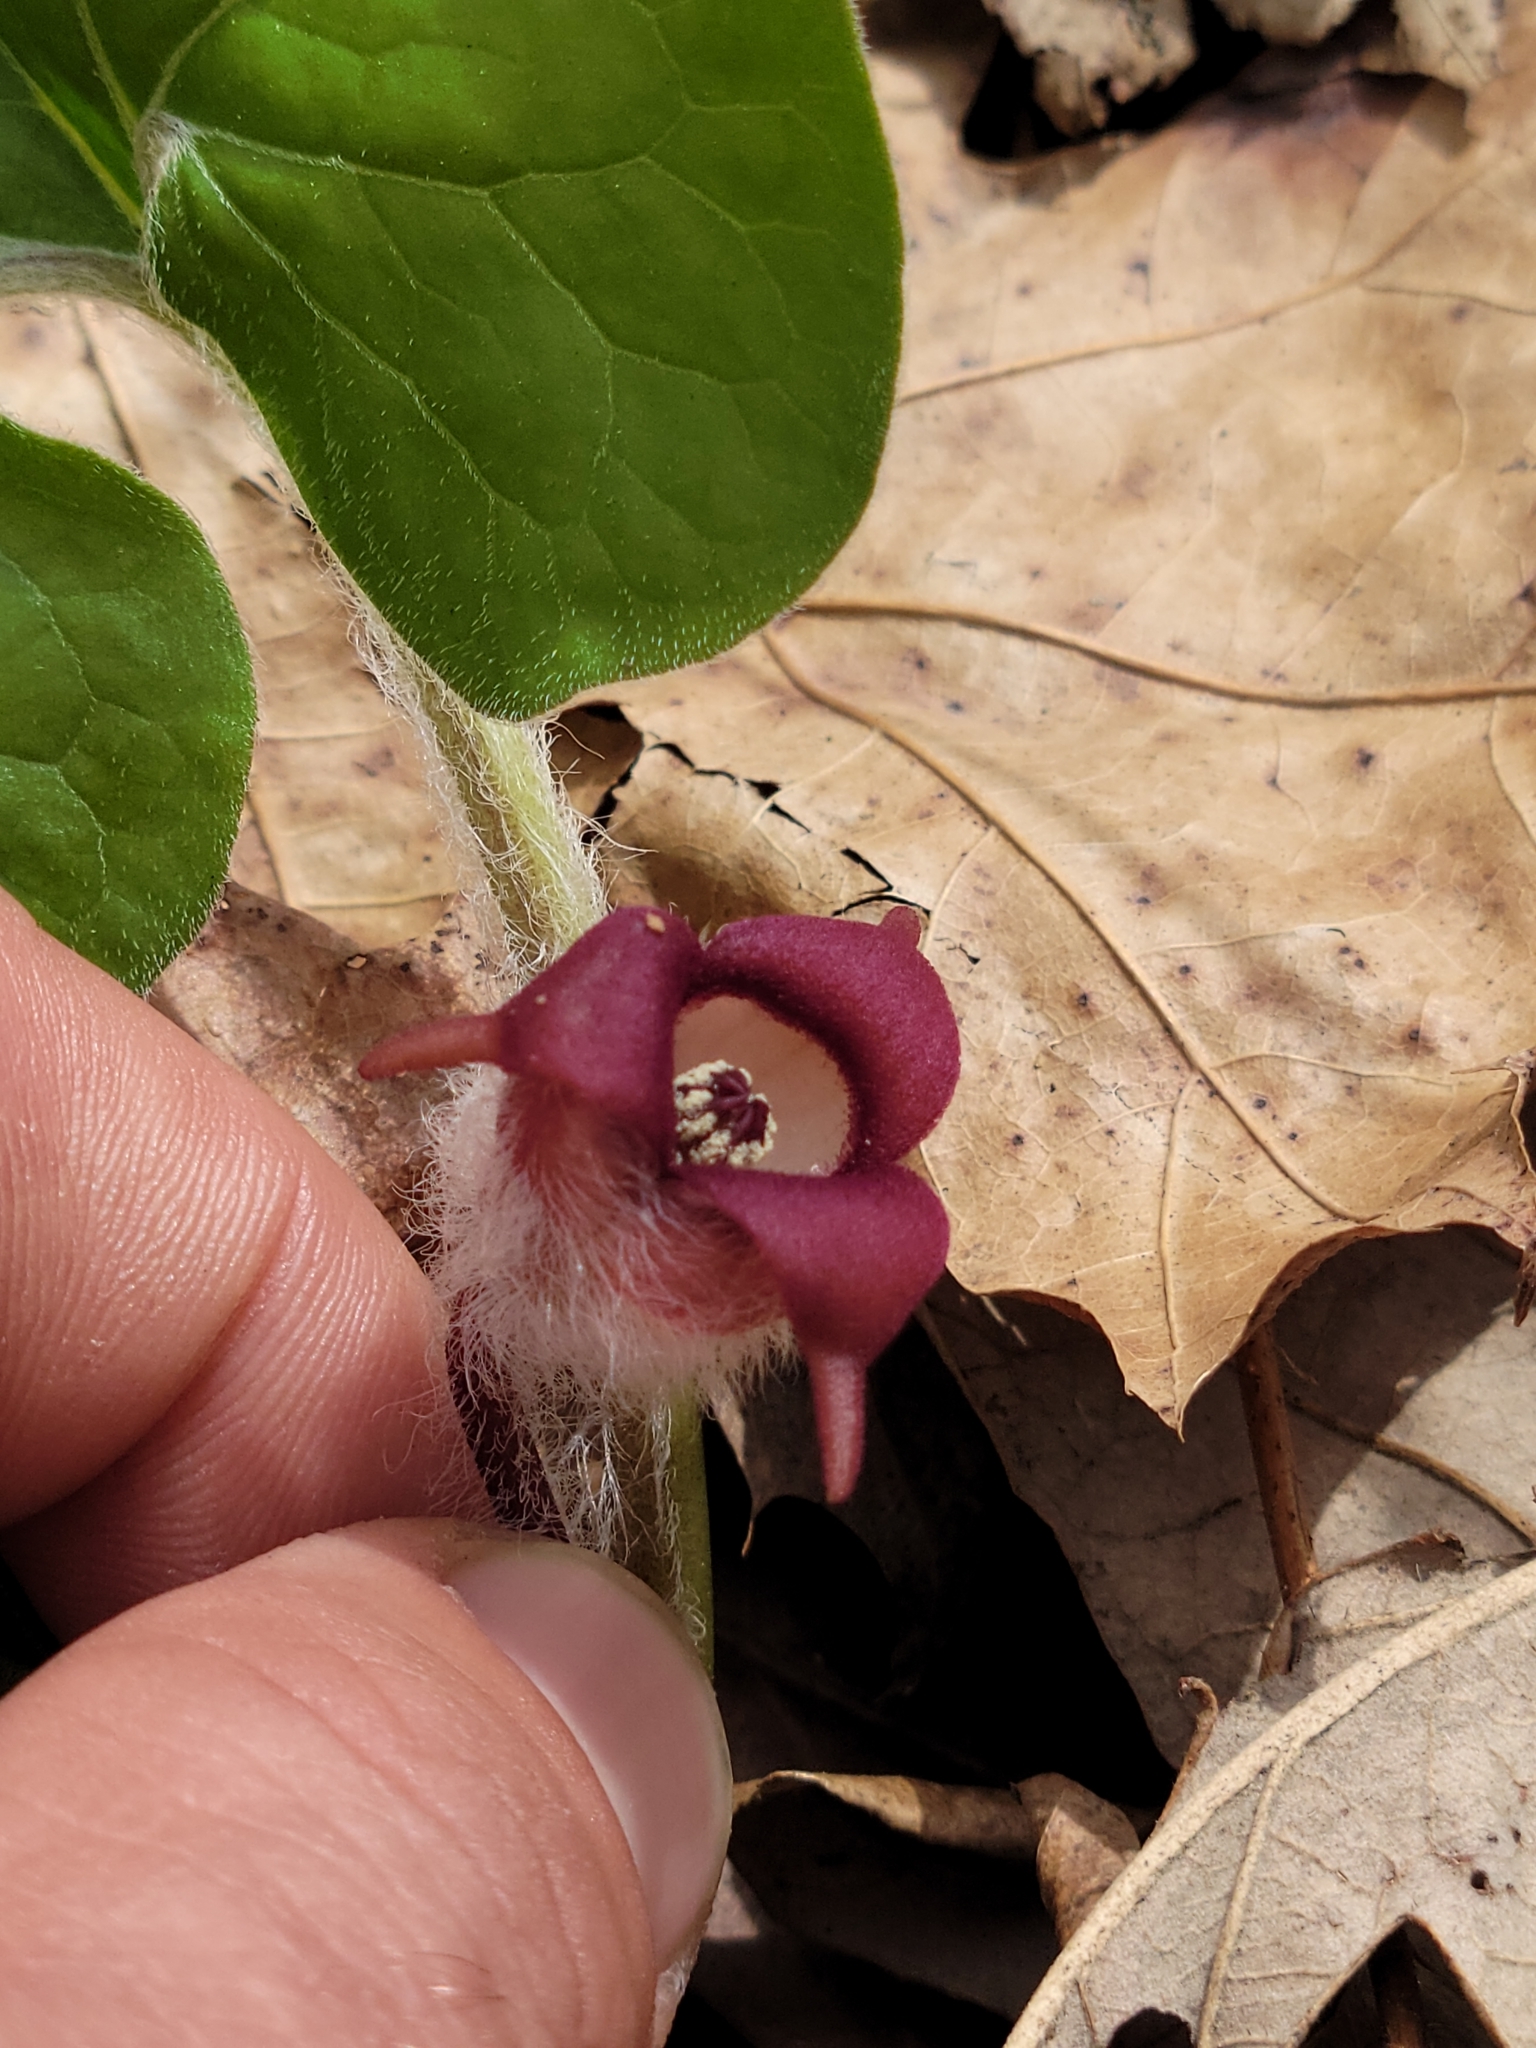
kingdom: Plantae
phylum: Tracheophyta
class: Magnoliopsida
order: Piperales
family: Aristolochiaceae
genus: Asarum
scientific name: Asarum canadense
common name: Wild ginger
